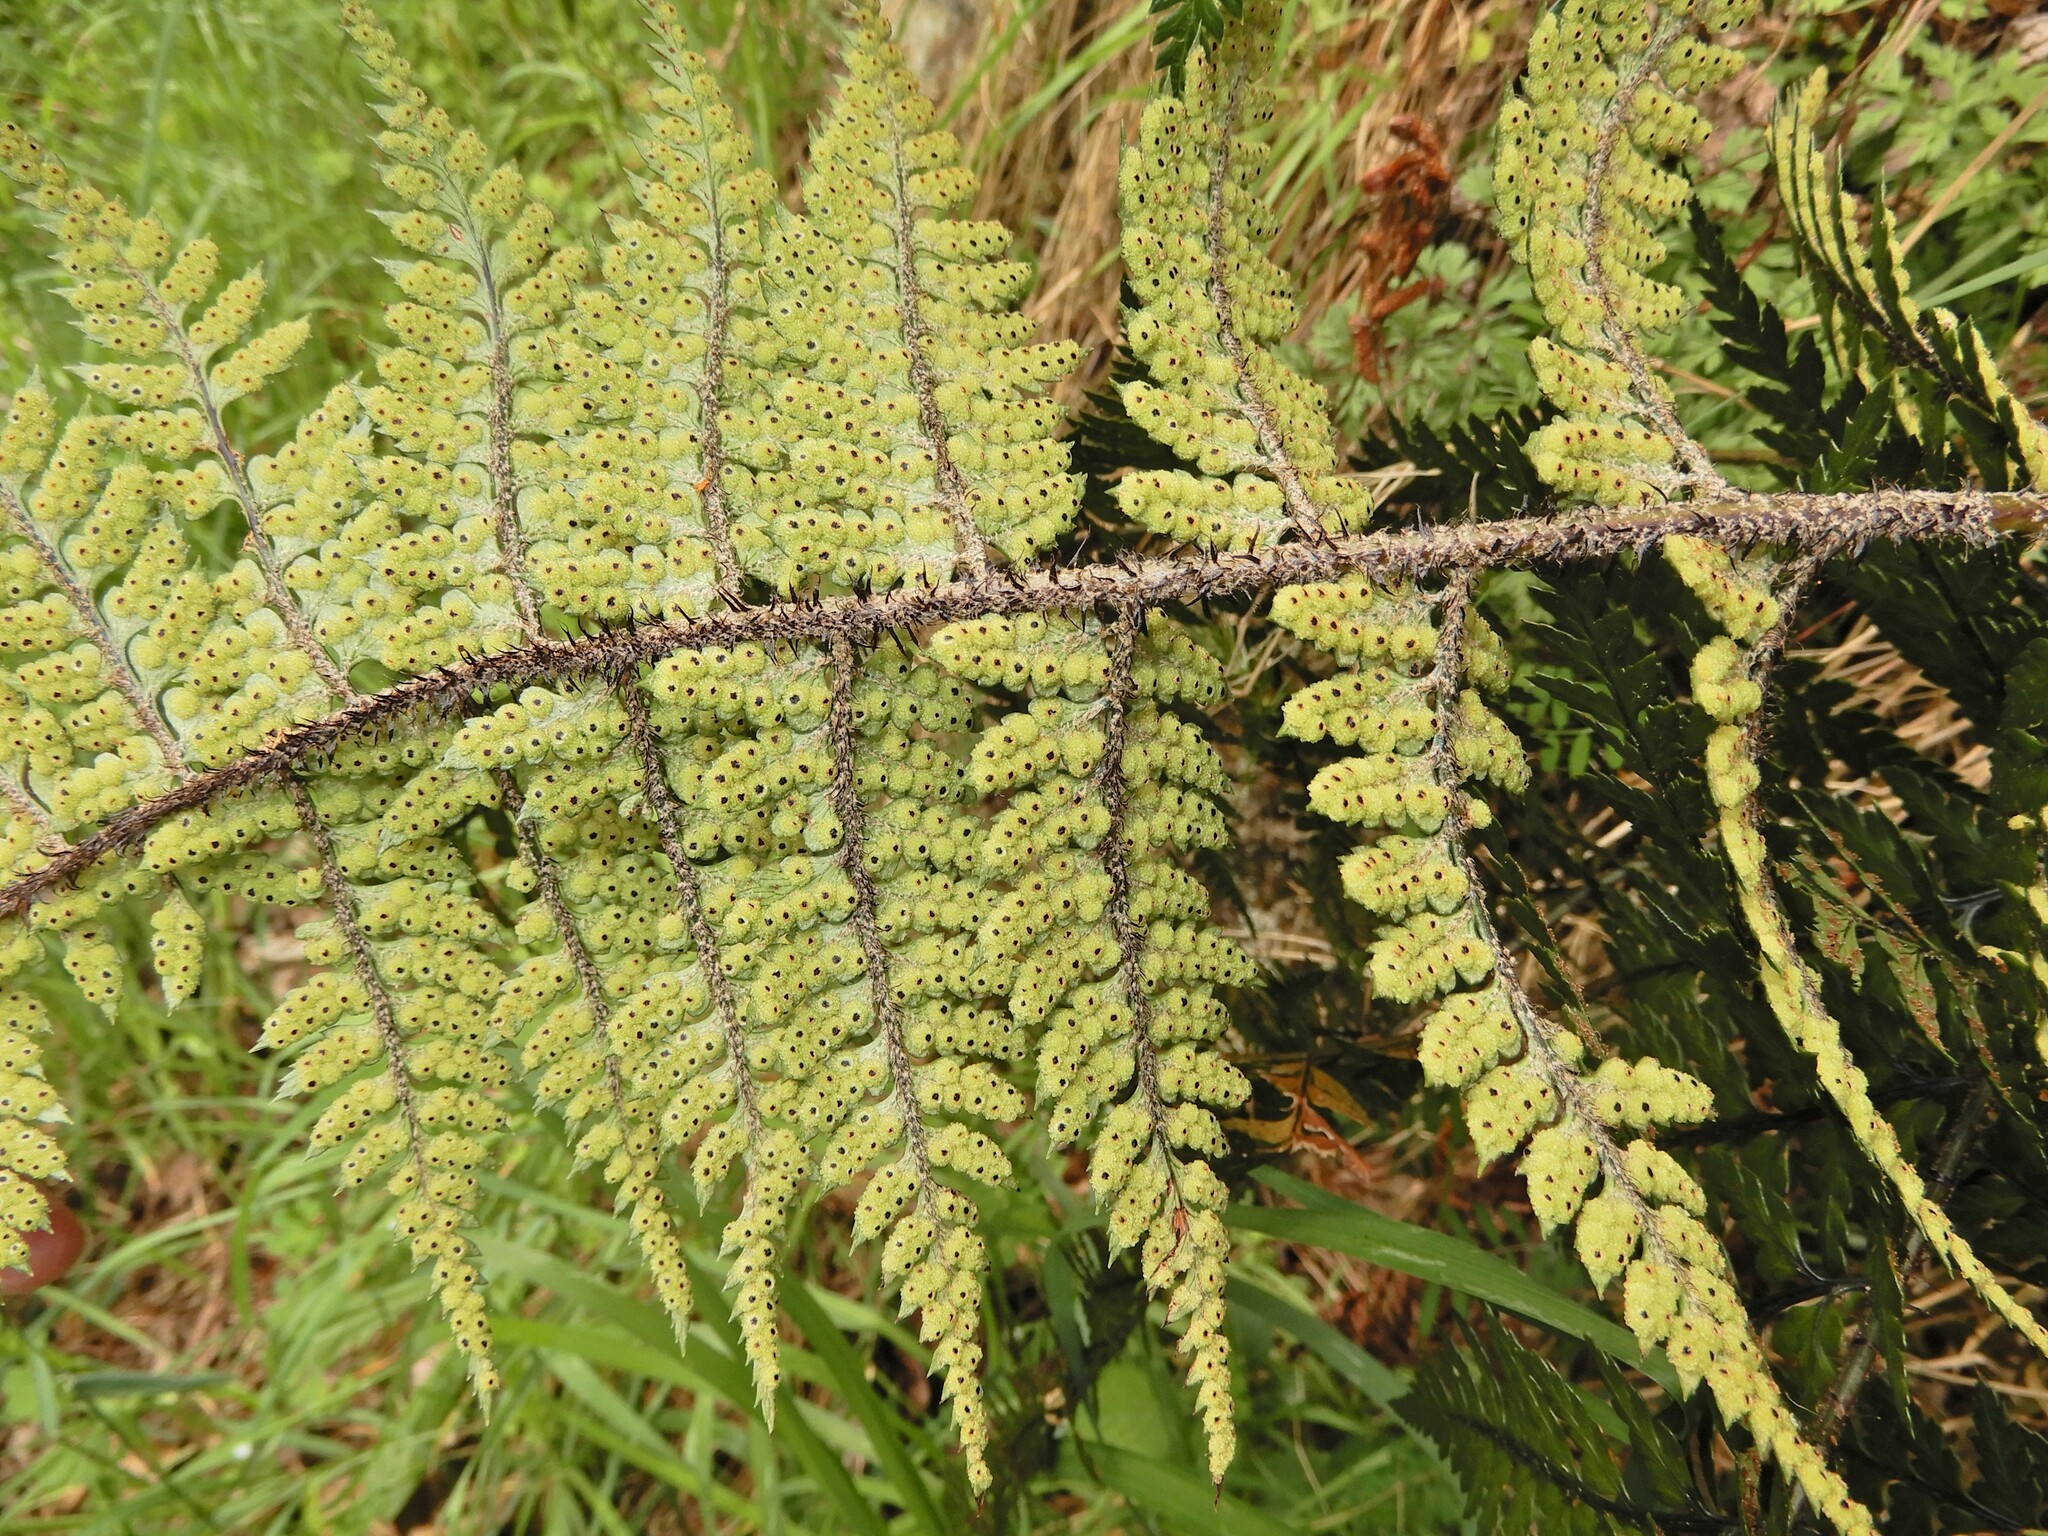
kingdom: Plantae
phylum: Tracheophyta
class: Polypodiopsida
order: Polypodiales
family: Dryopteridaceae
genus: Polystichum
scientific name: Polystichum neozelandicum
